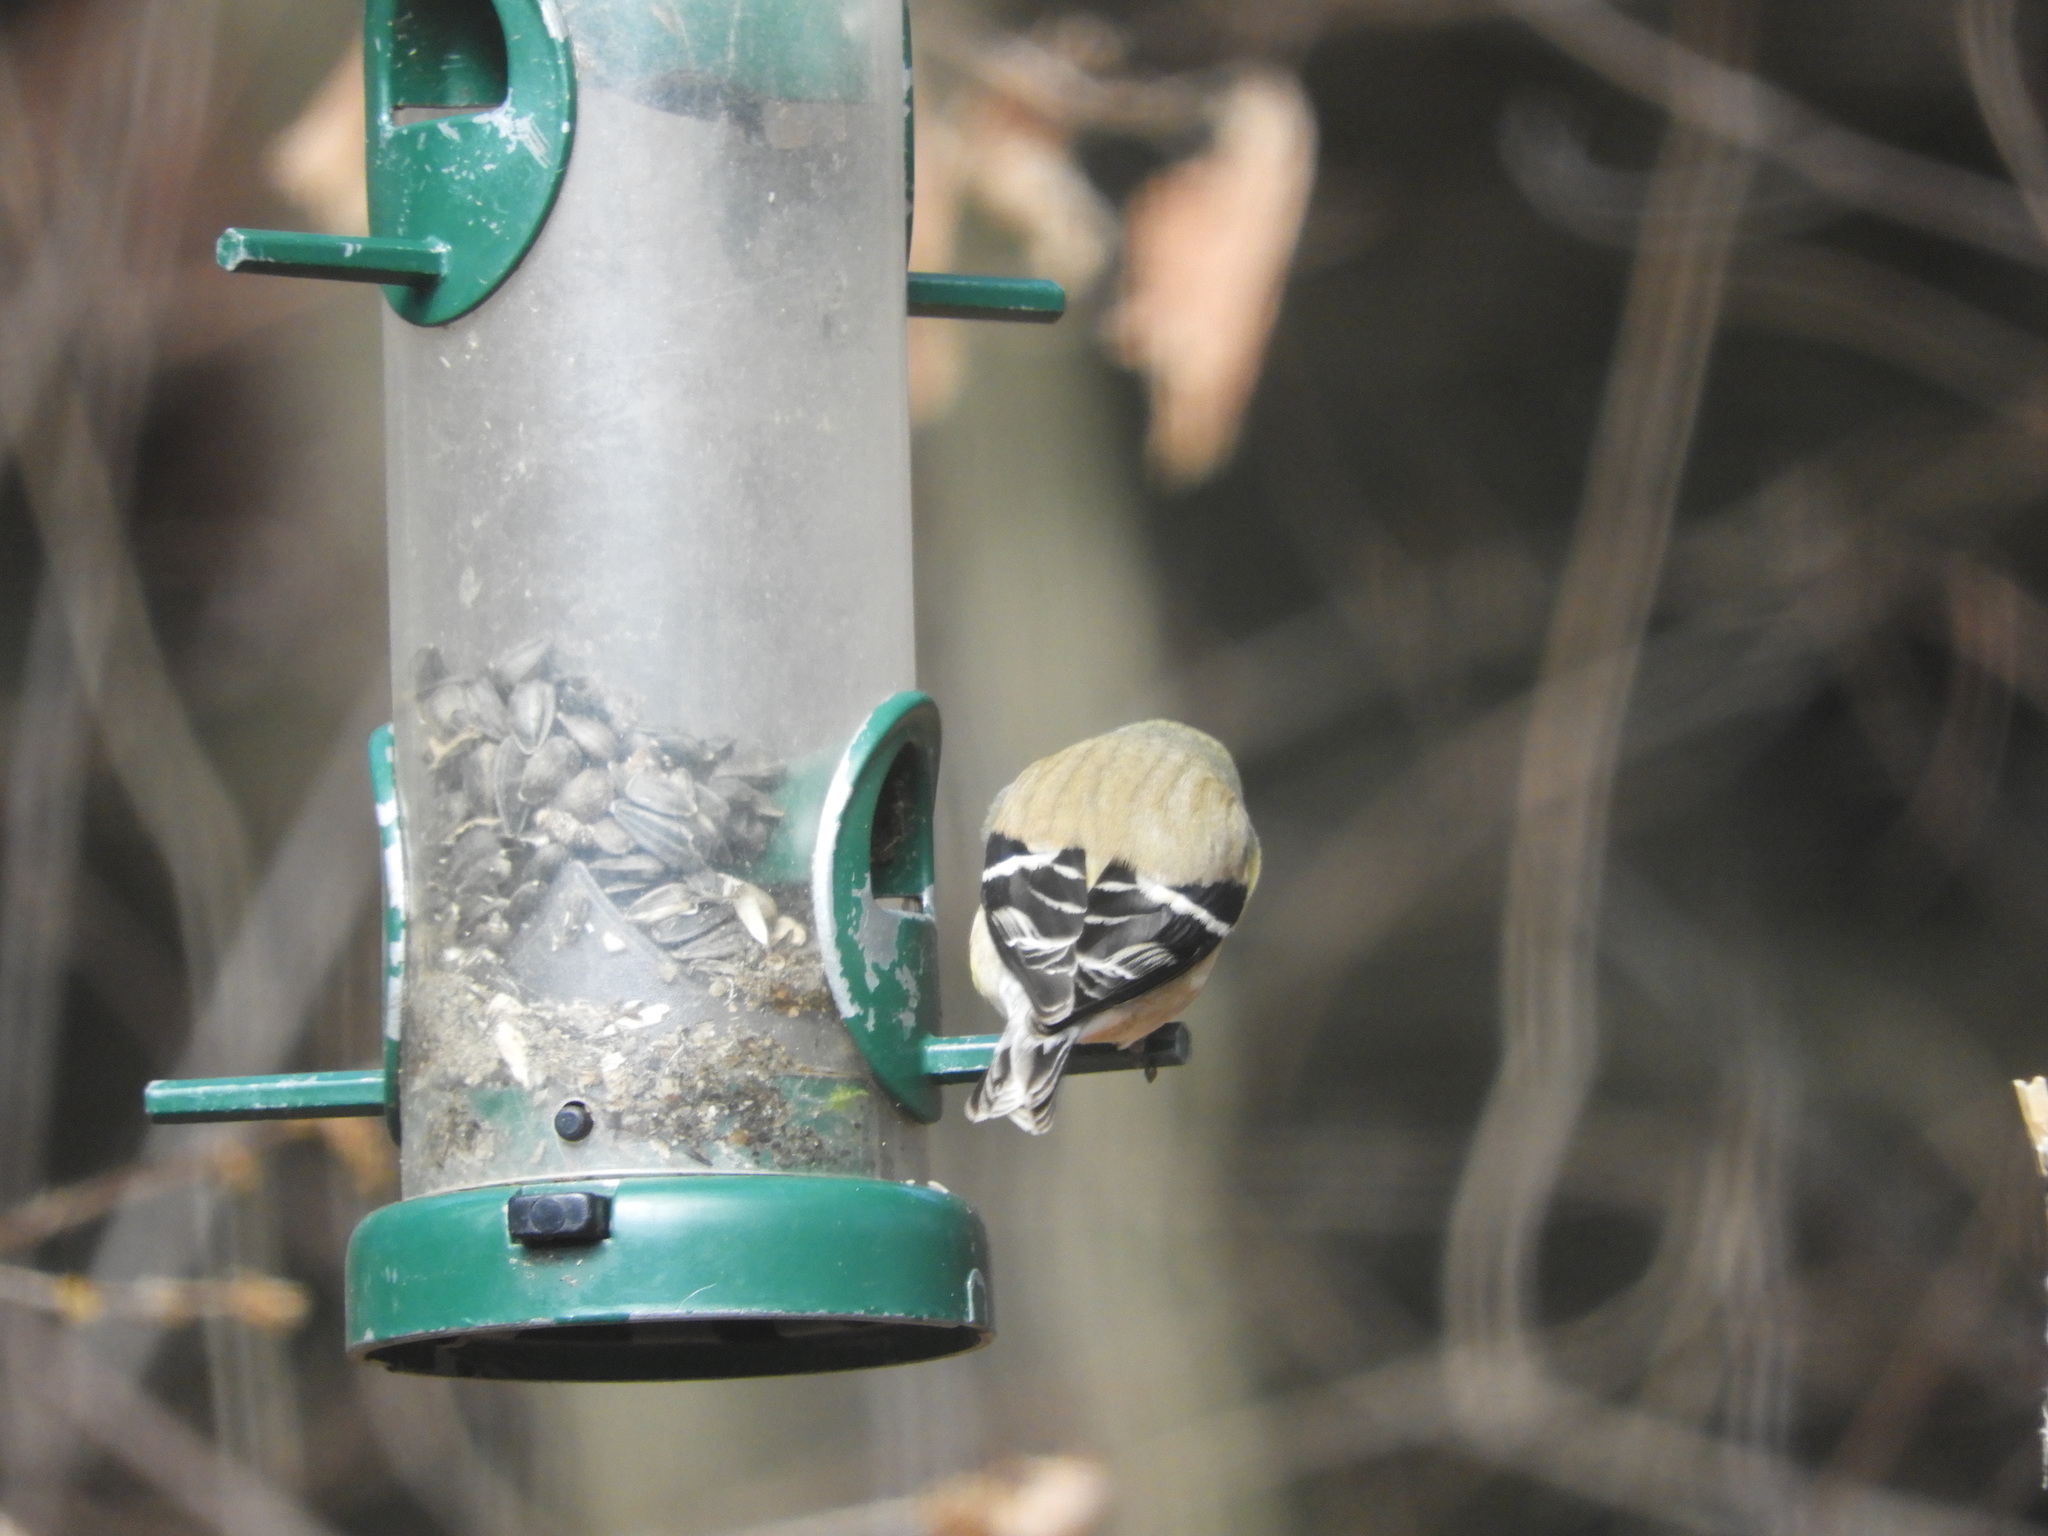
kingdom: Animalia
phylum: Chordata
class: Aves
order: Passeriformes
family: Fringillidae
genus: Spinus
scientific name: Spinus tristis
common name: American goldfinch
